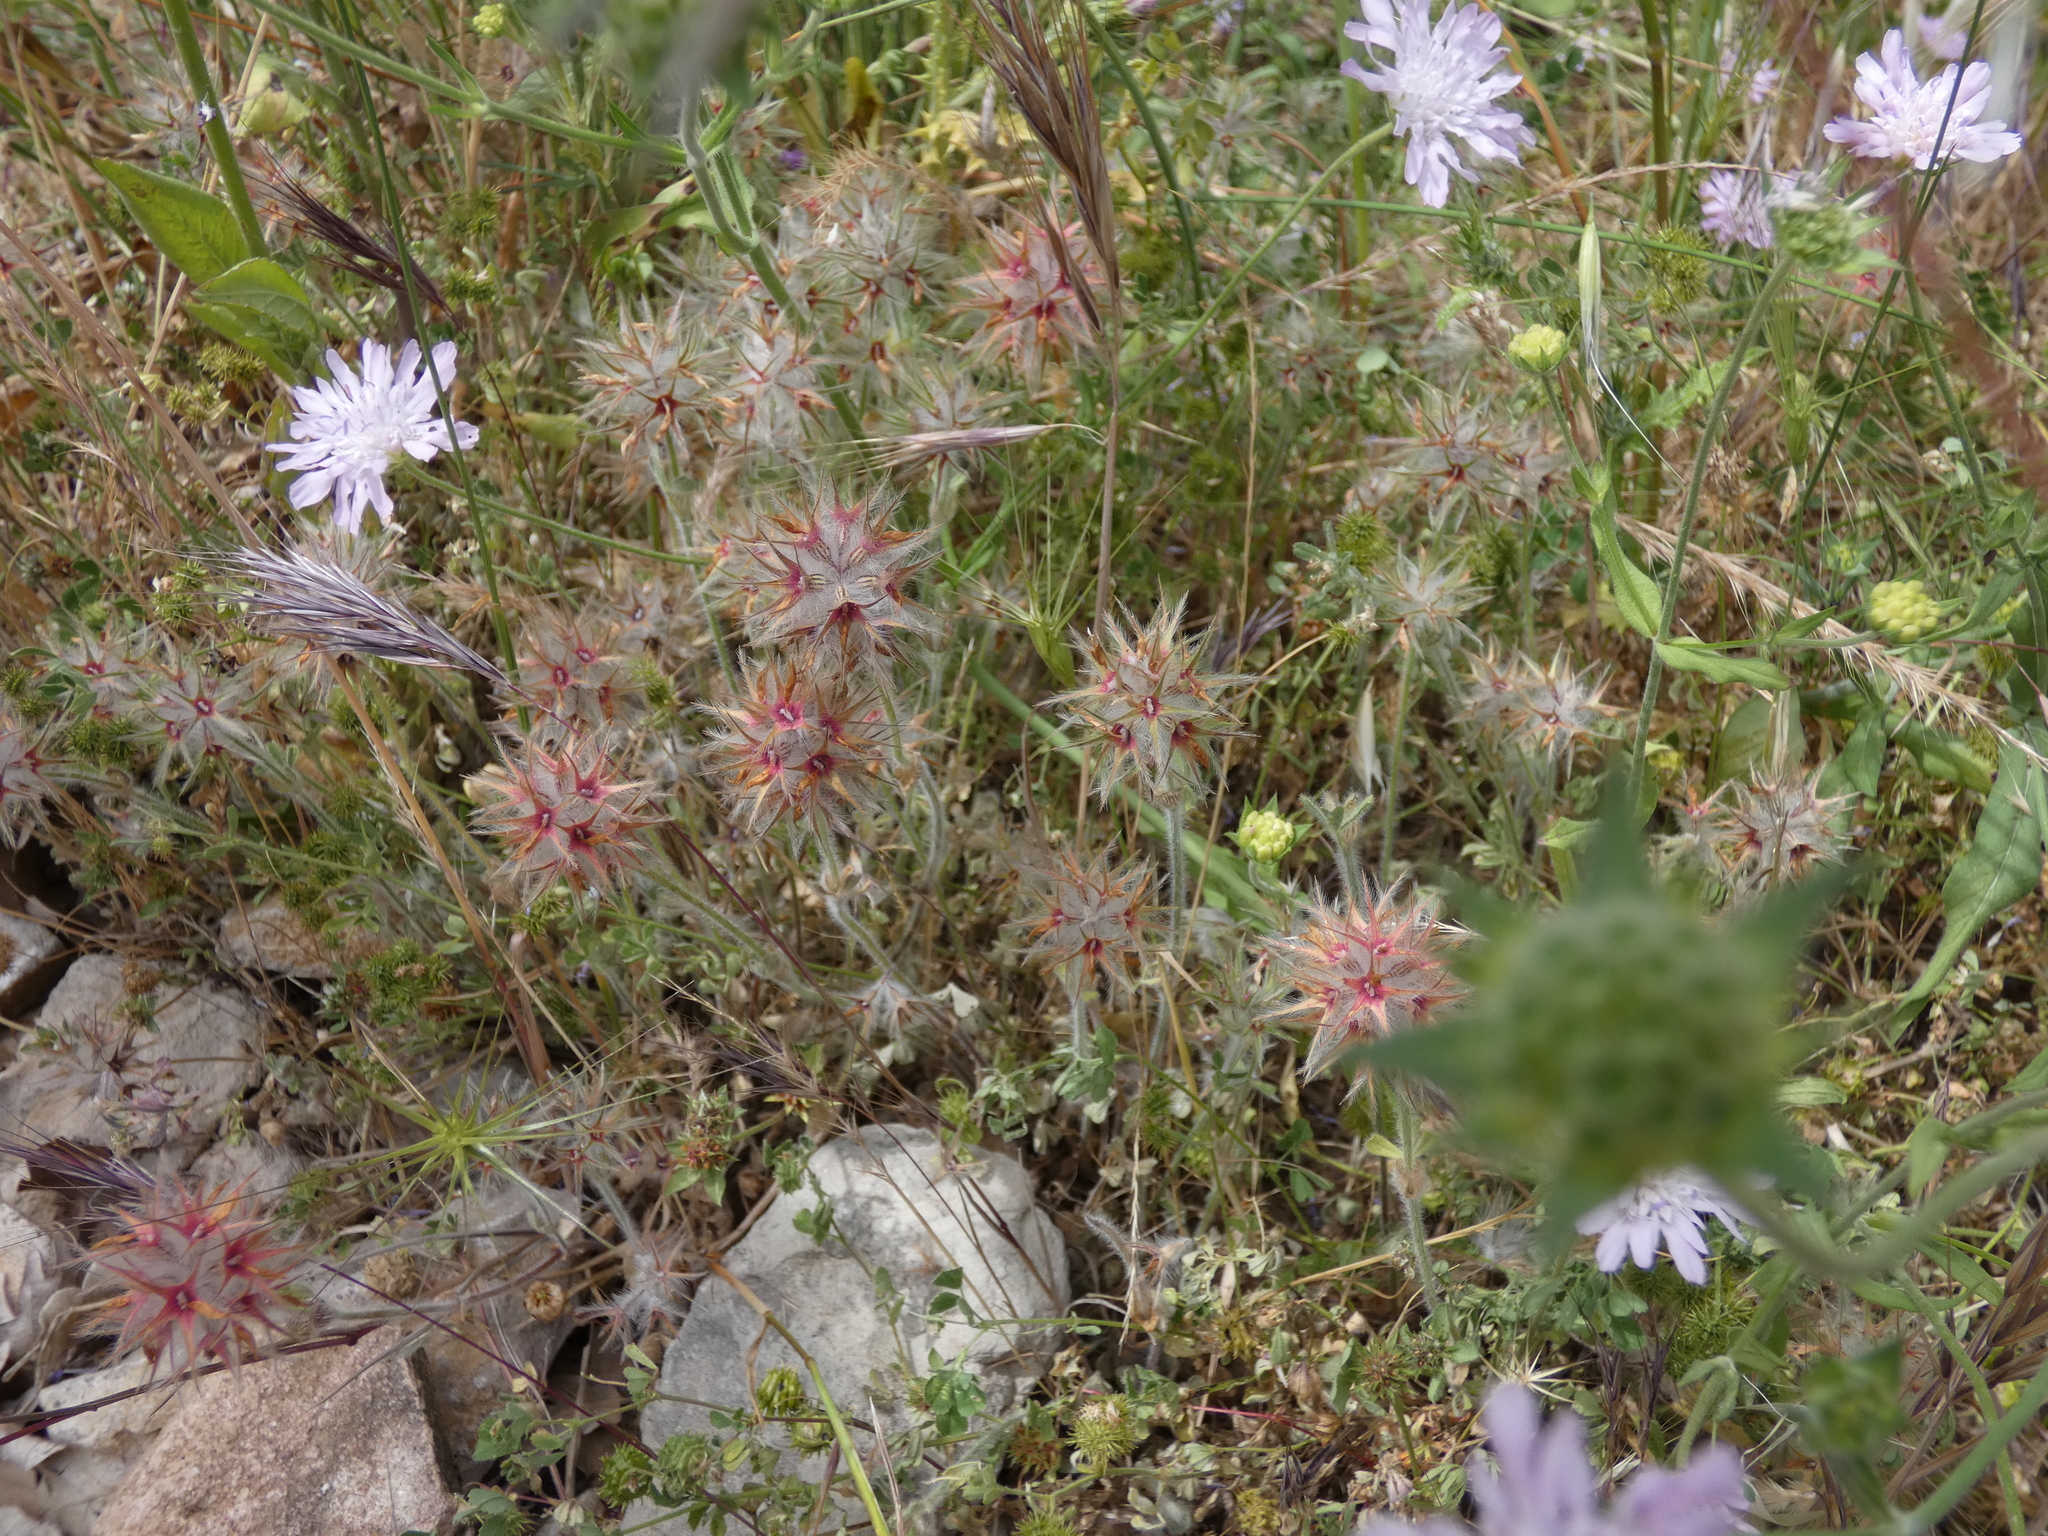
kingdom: Plantae
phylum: Tracheophyta
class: Magnoliopsida
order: Fabales
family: Fabaceae
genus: Trifolium
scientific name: Trifolium stellatum
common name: Starry clover
